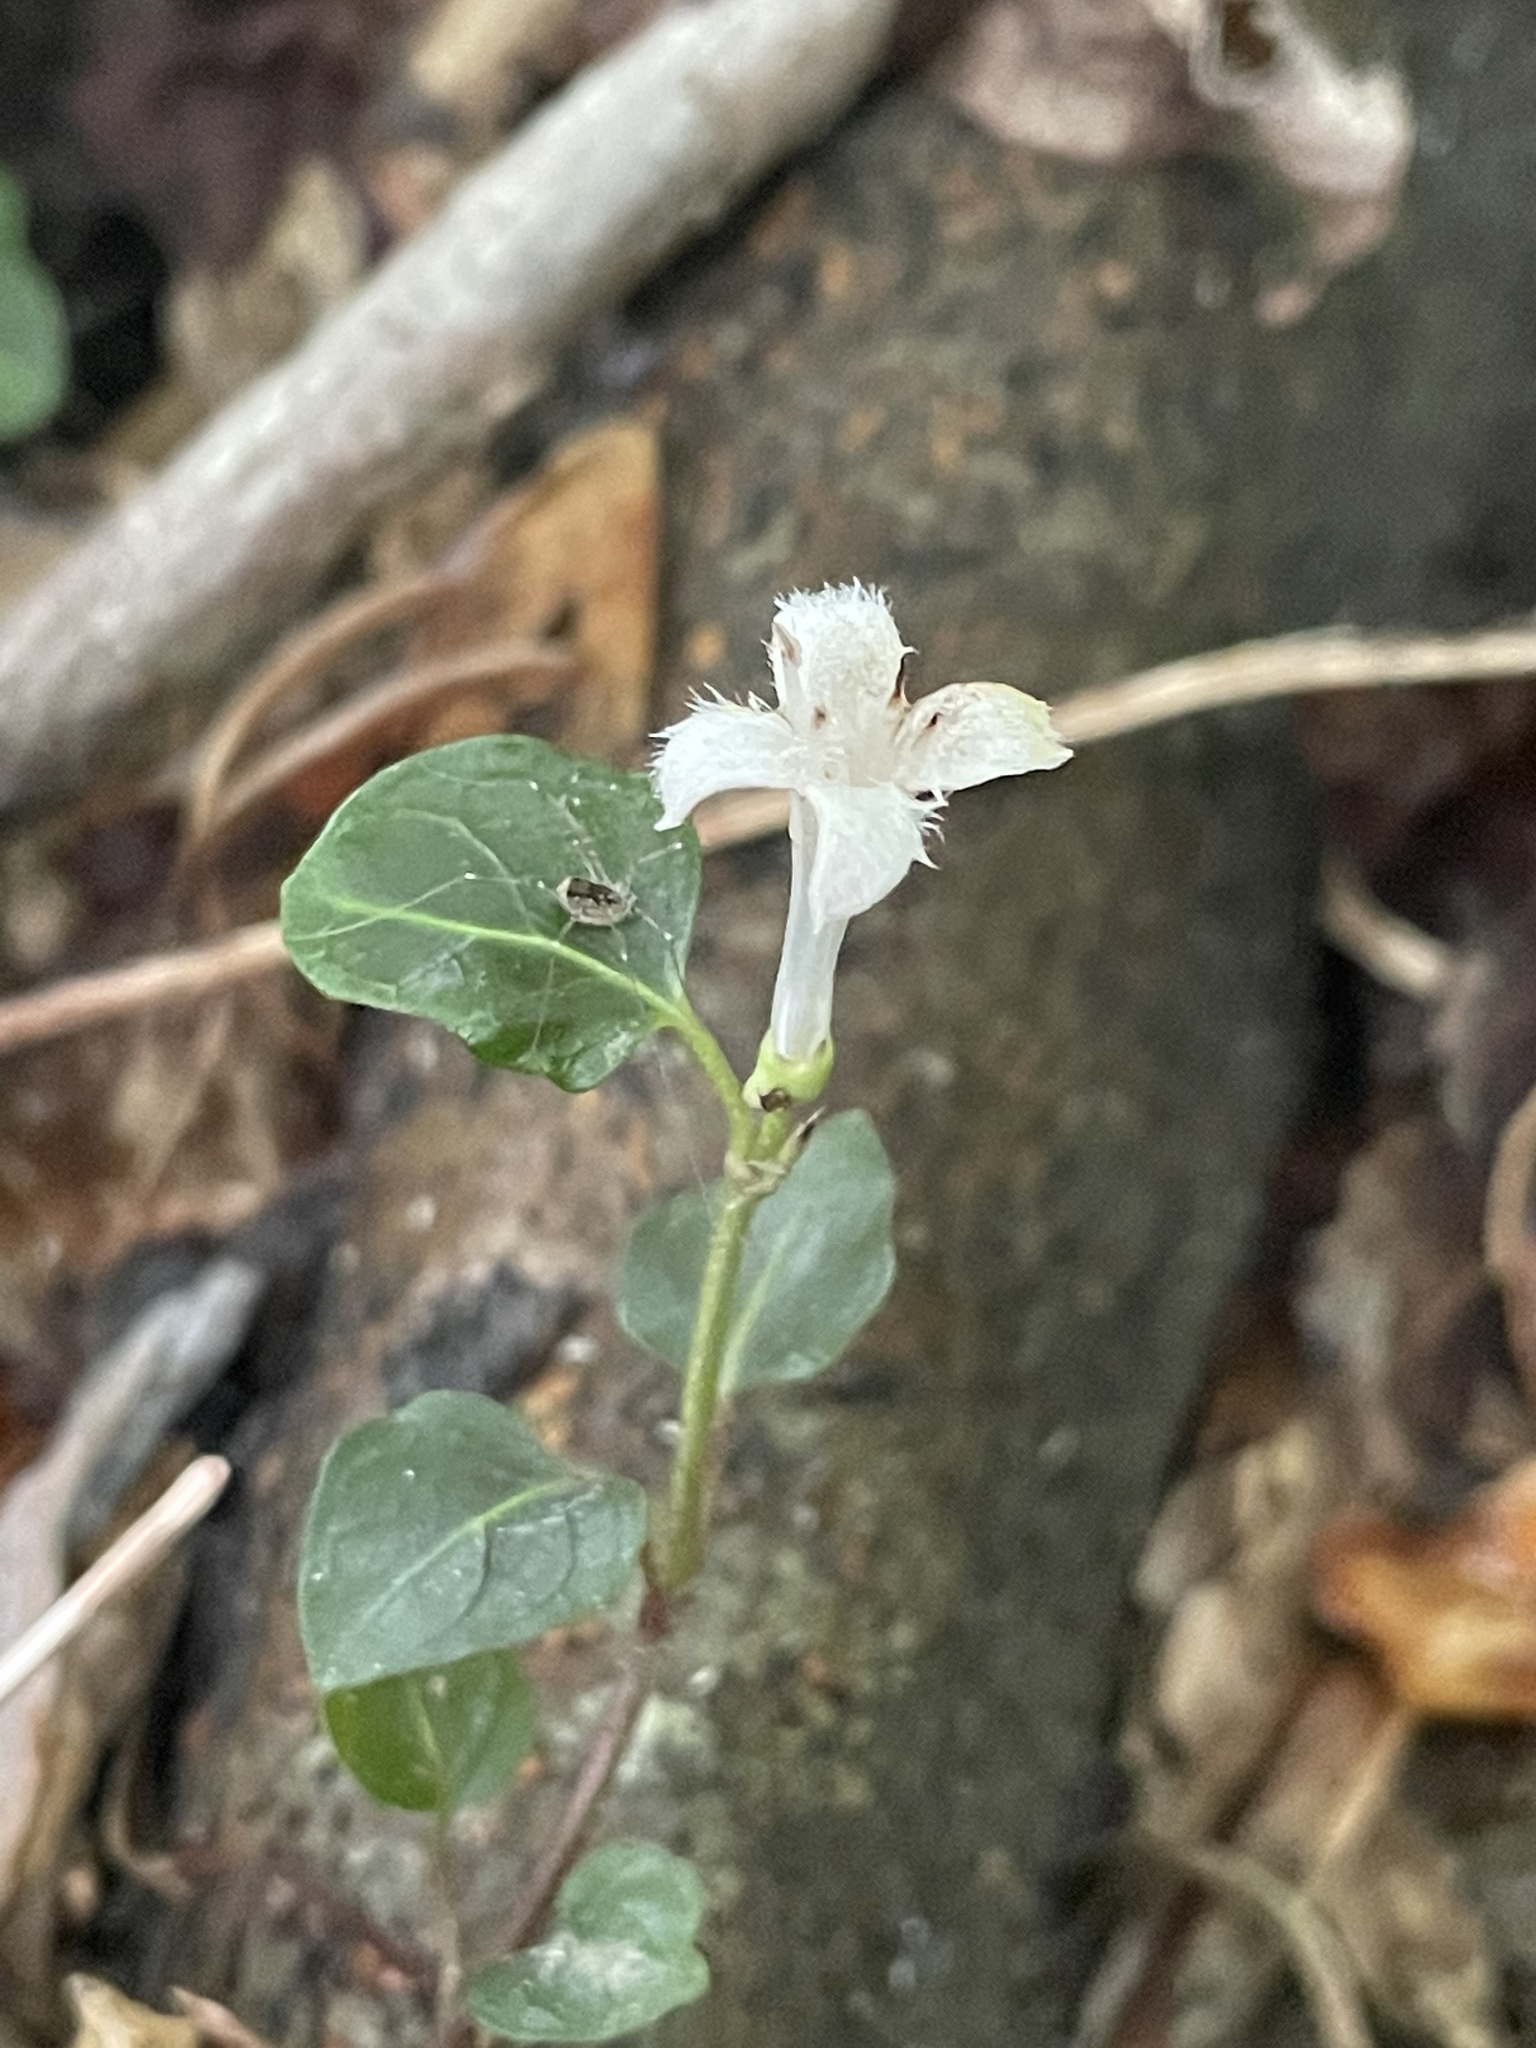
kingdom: Plantae
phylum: Tracheophyta
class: Magnoliopsida
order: Gentianales
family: Rubiaceae
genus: Mitchella
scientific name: Mitchella repens
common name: Partridge-berry
